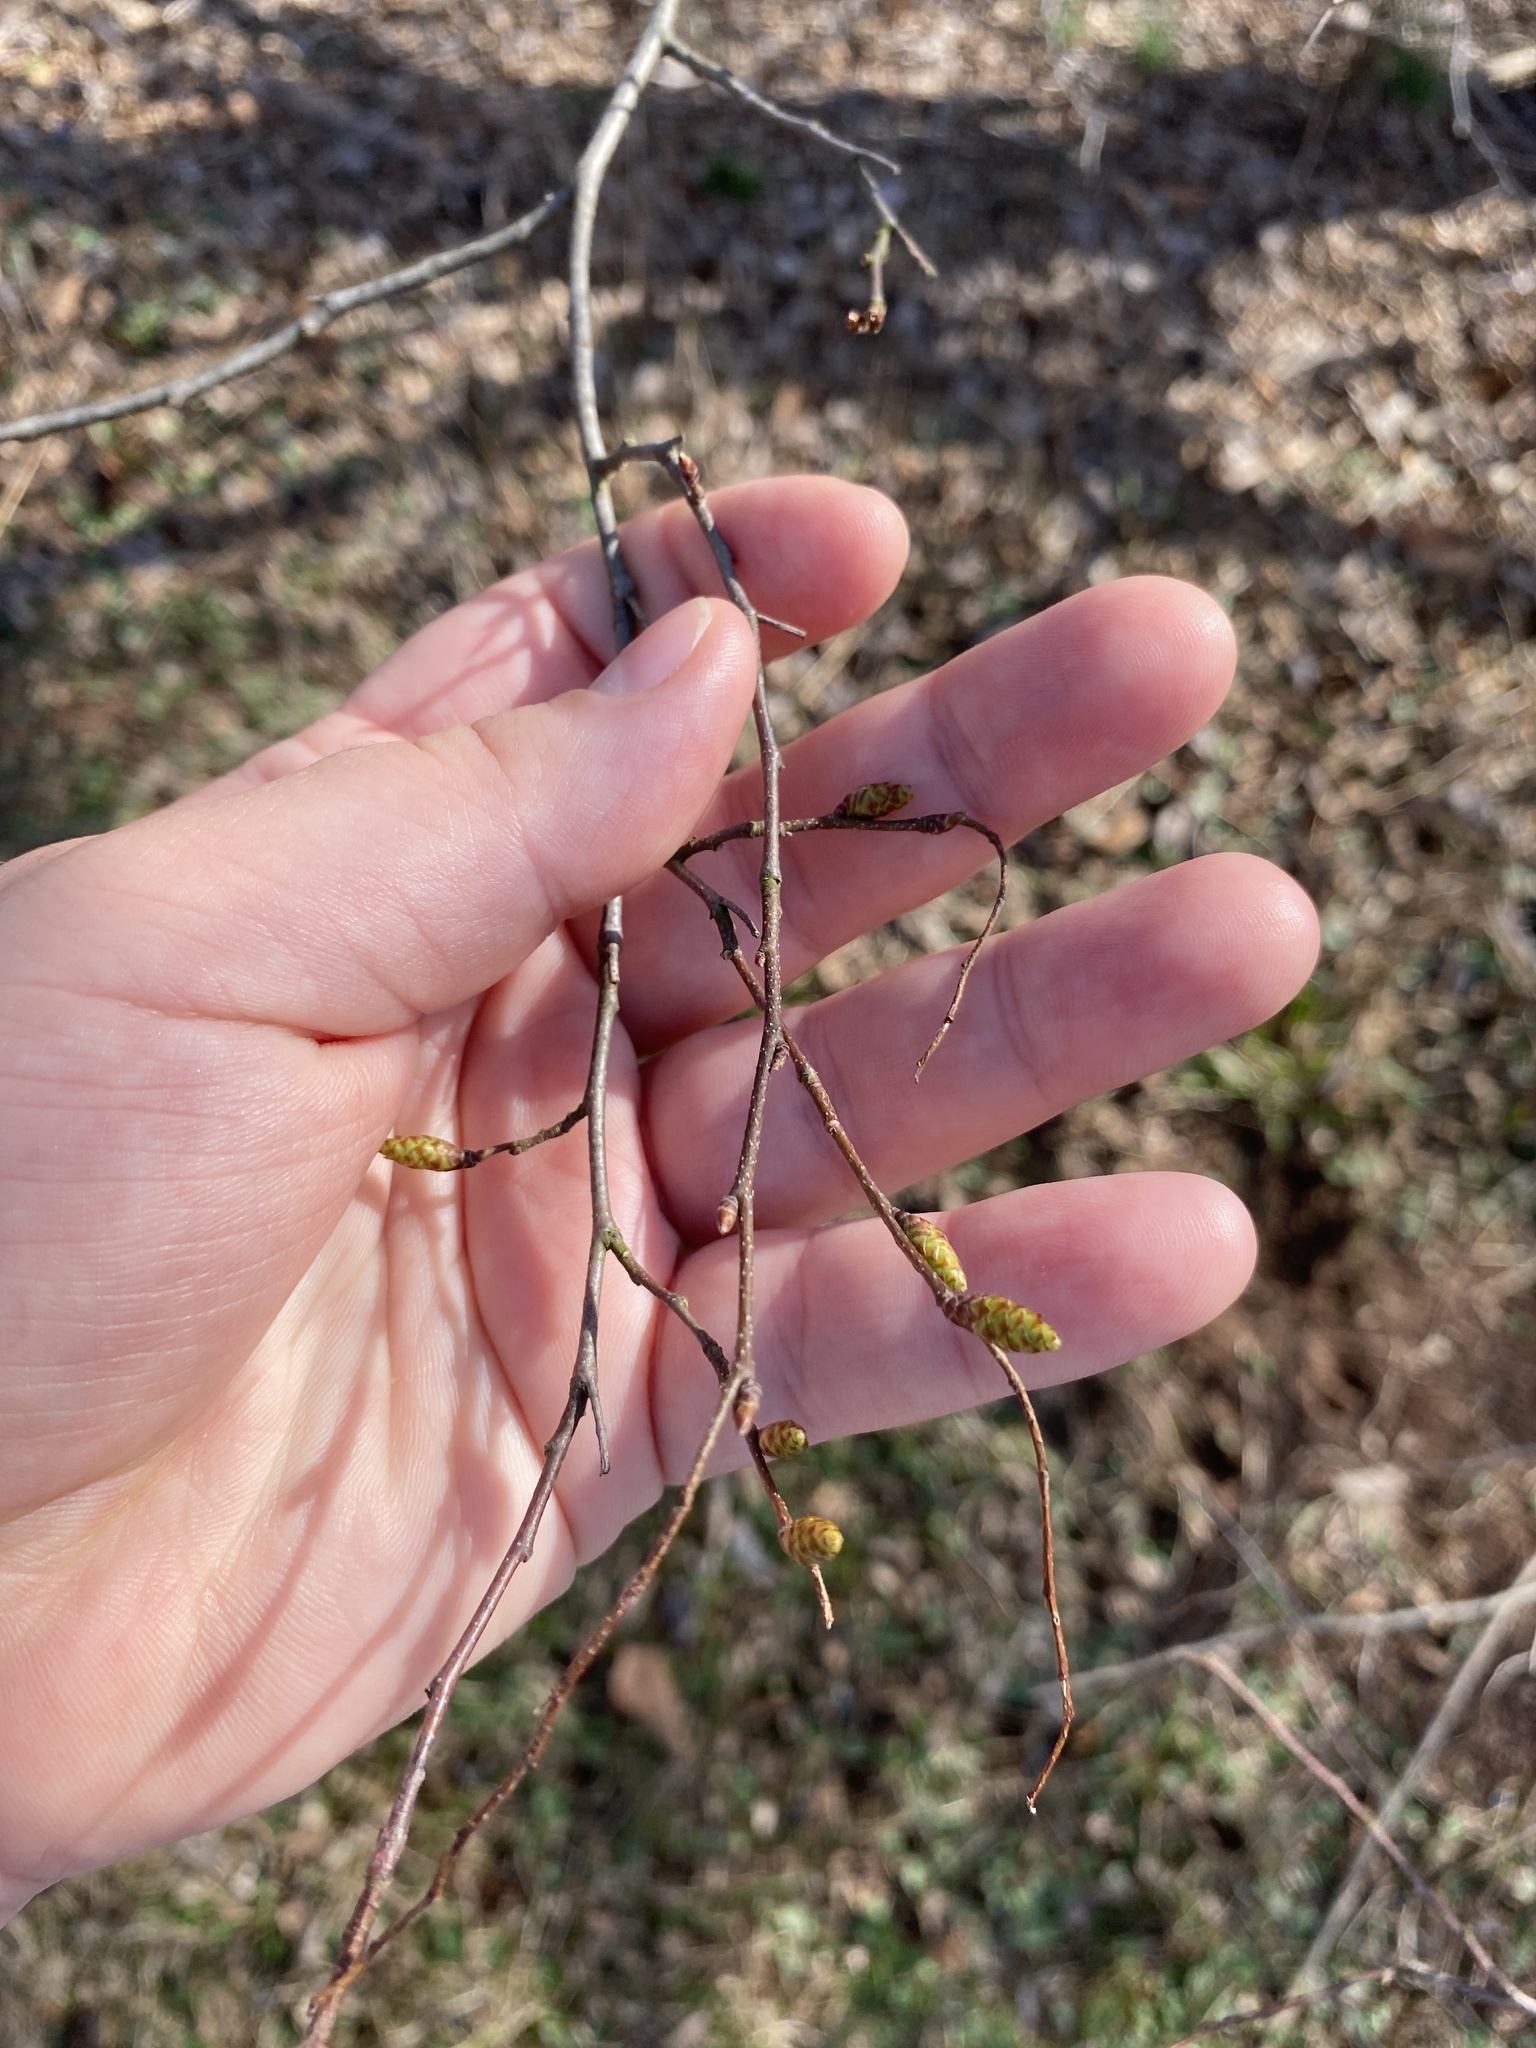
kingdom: Plantae
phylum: Tracheophyta
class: Magnoliopsida
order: Fagales
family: Betulaceae
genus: Carpinus
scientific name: Carpinus caroliniana
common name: American hornbeam
